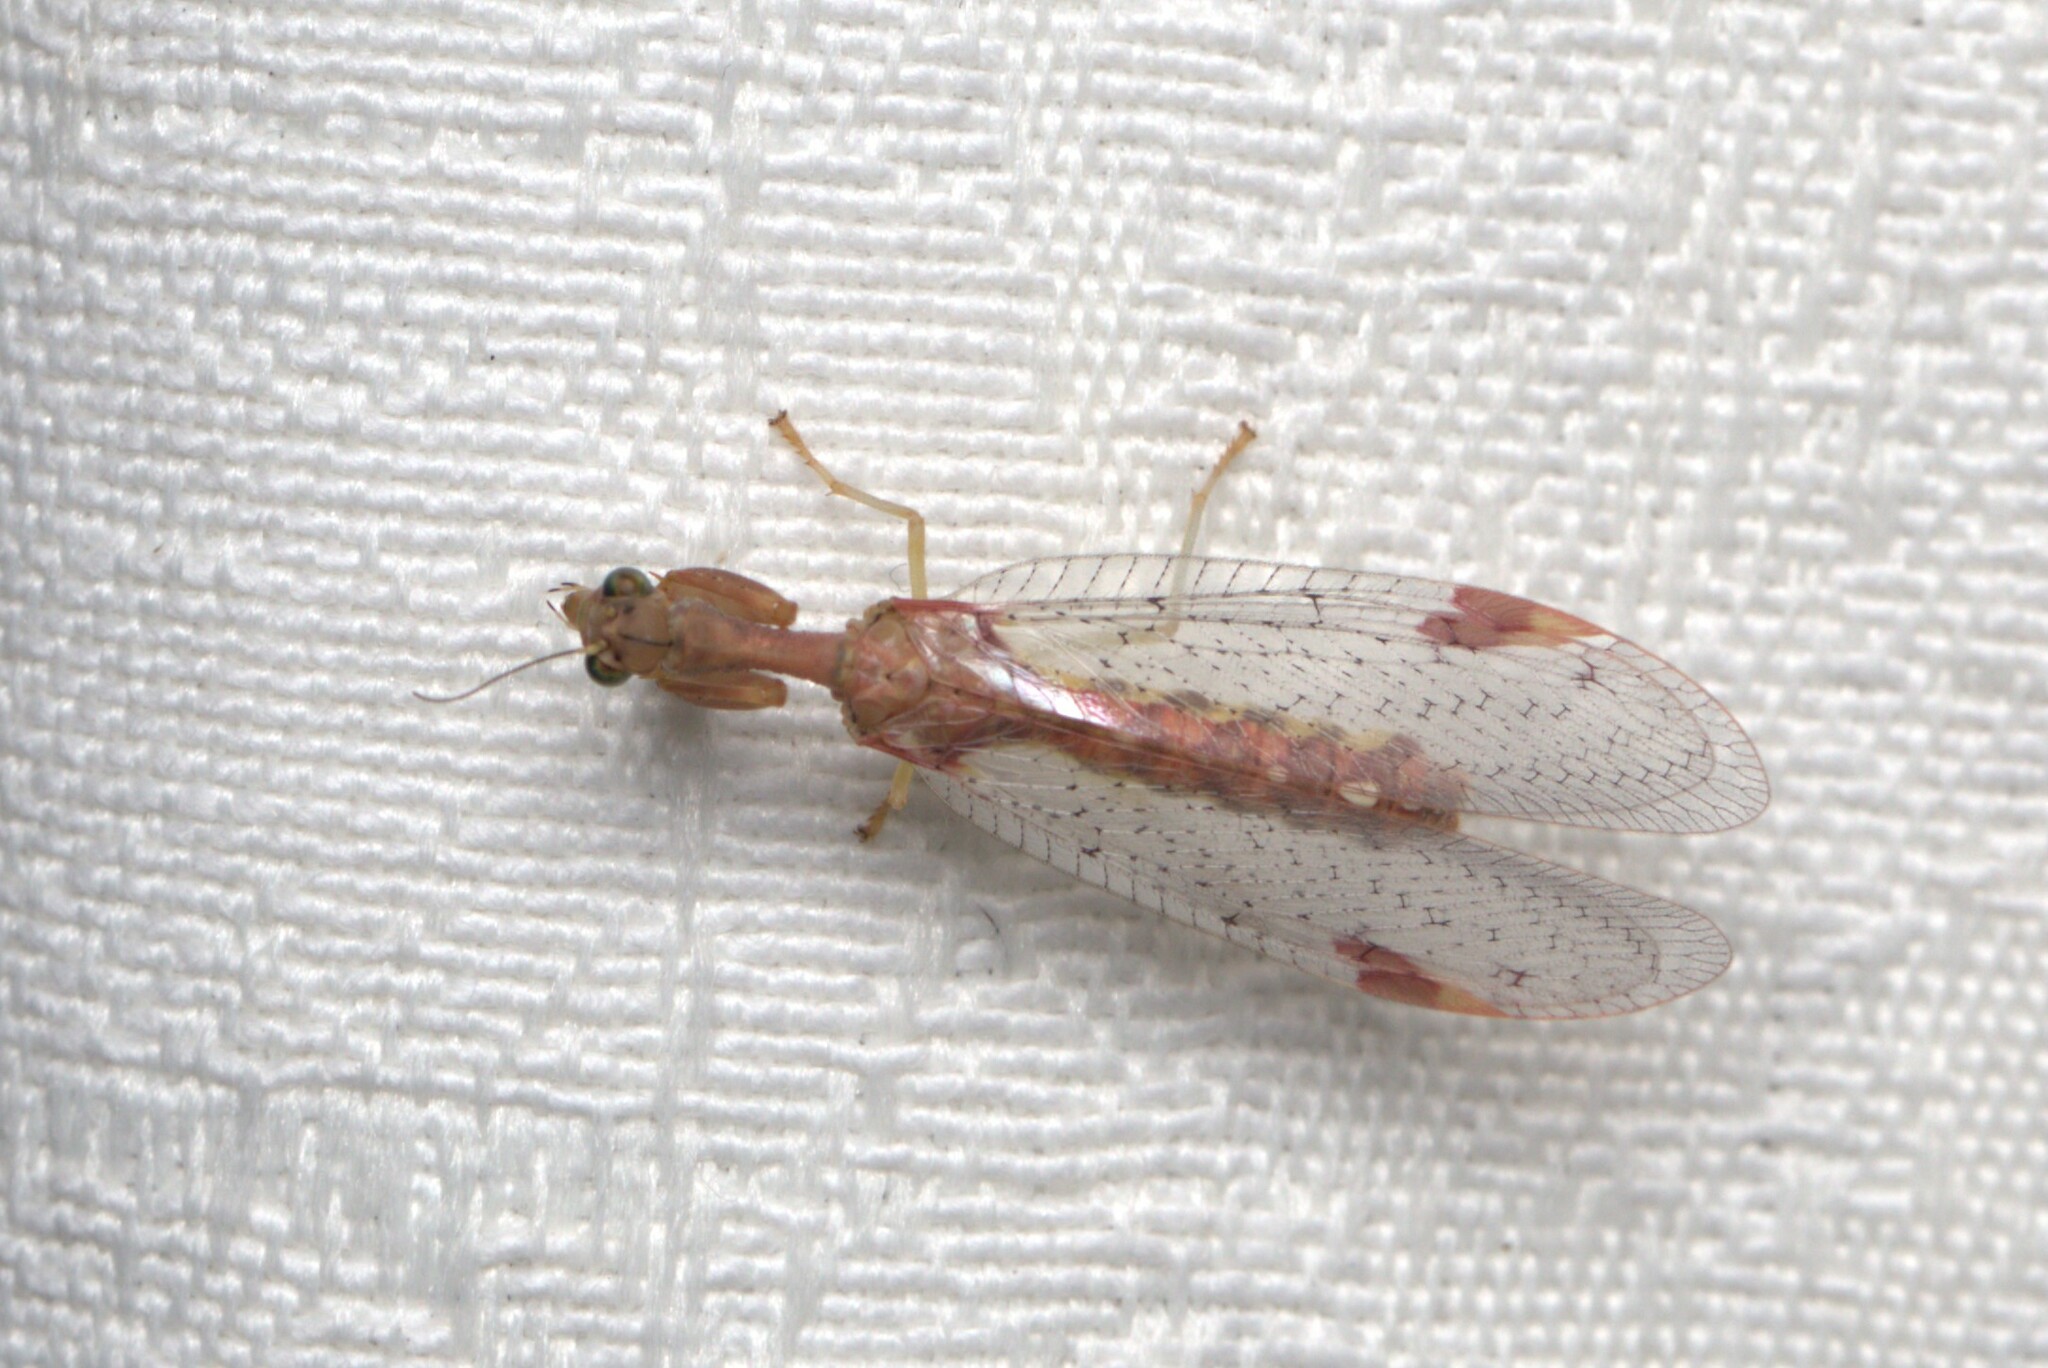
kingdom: Animalia
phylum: Arthropoda
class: Insecta
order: Neuroptera
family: Mantispidae
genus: Ditaxis
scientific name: Ditaxis biseriata
